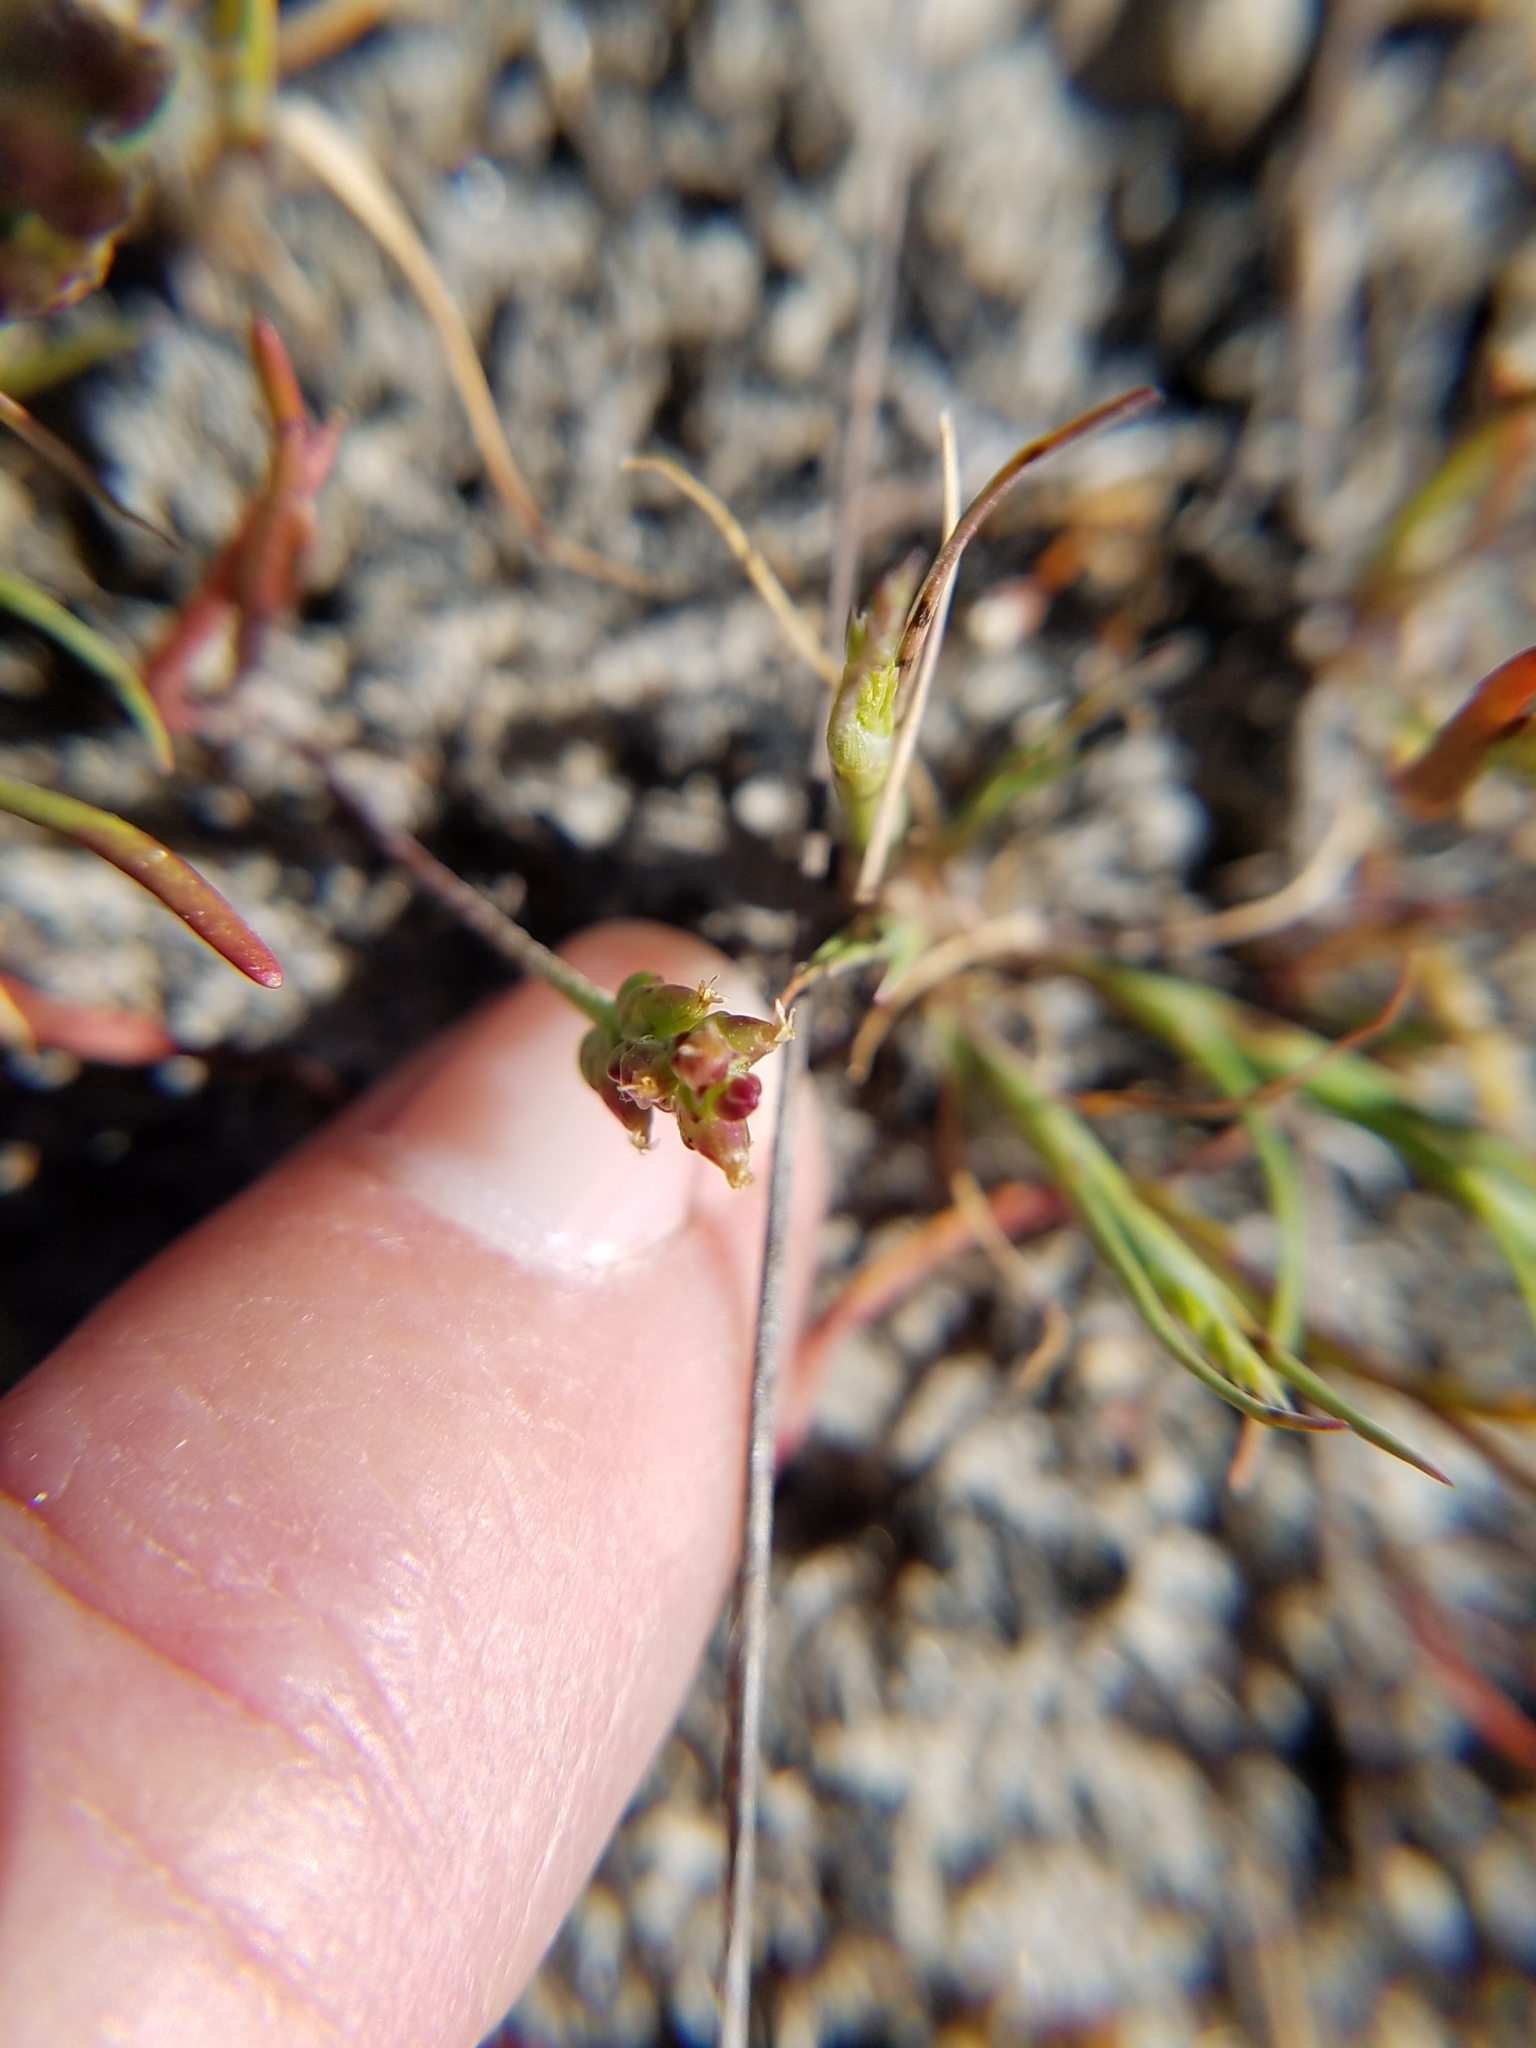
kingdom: Plantae
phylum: Tracheophyta
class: Magnoliopsida
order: Lamiales
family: Plantaginaceae
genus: Plantago
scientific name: Plantago elongata
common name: Linear-leaved plantain
